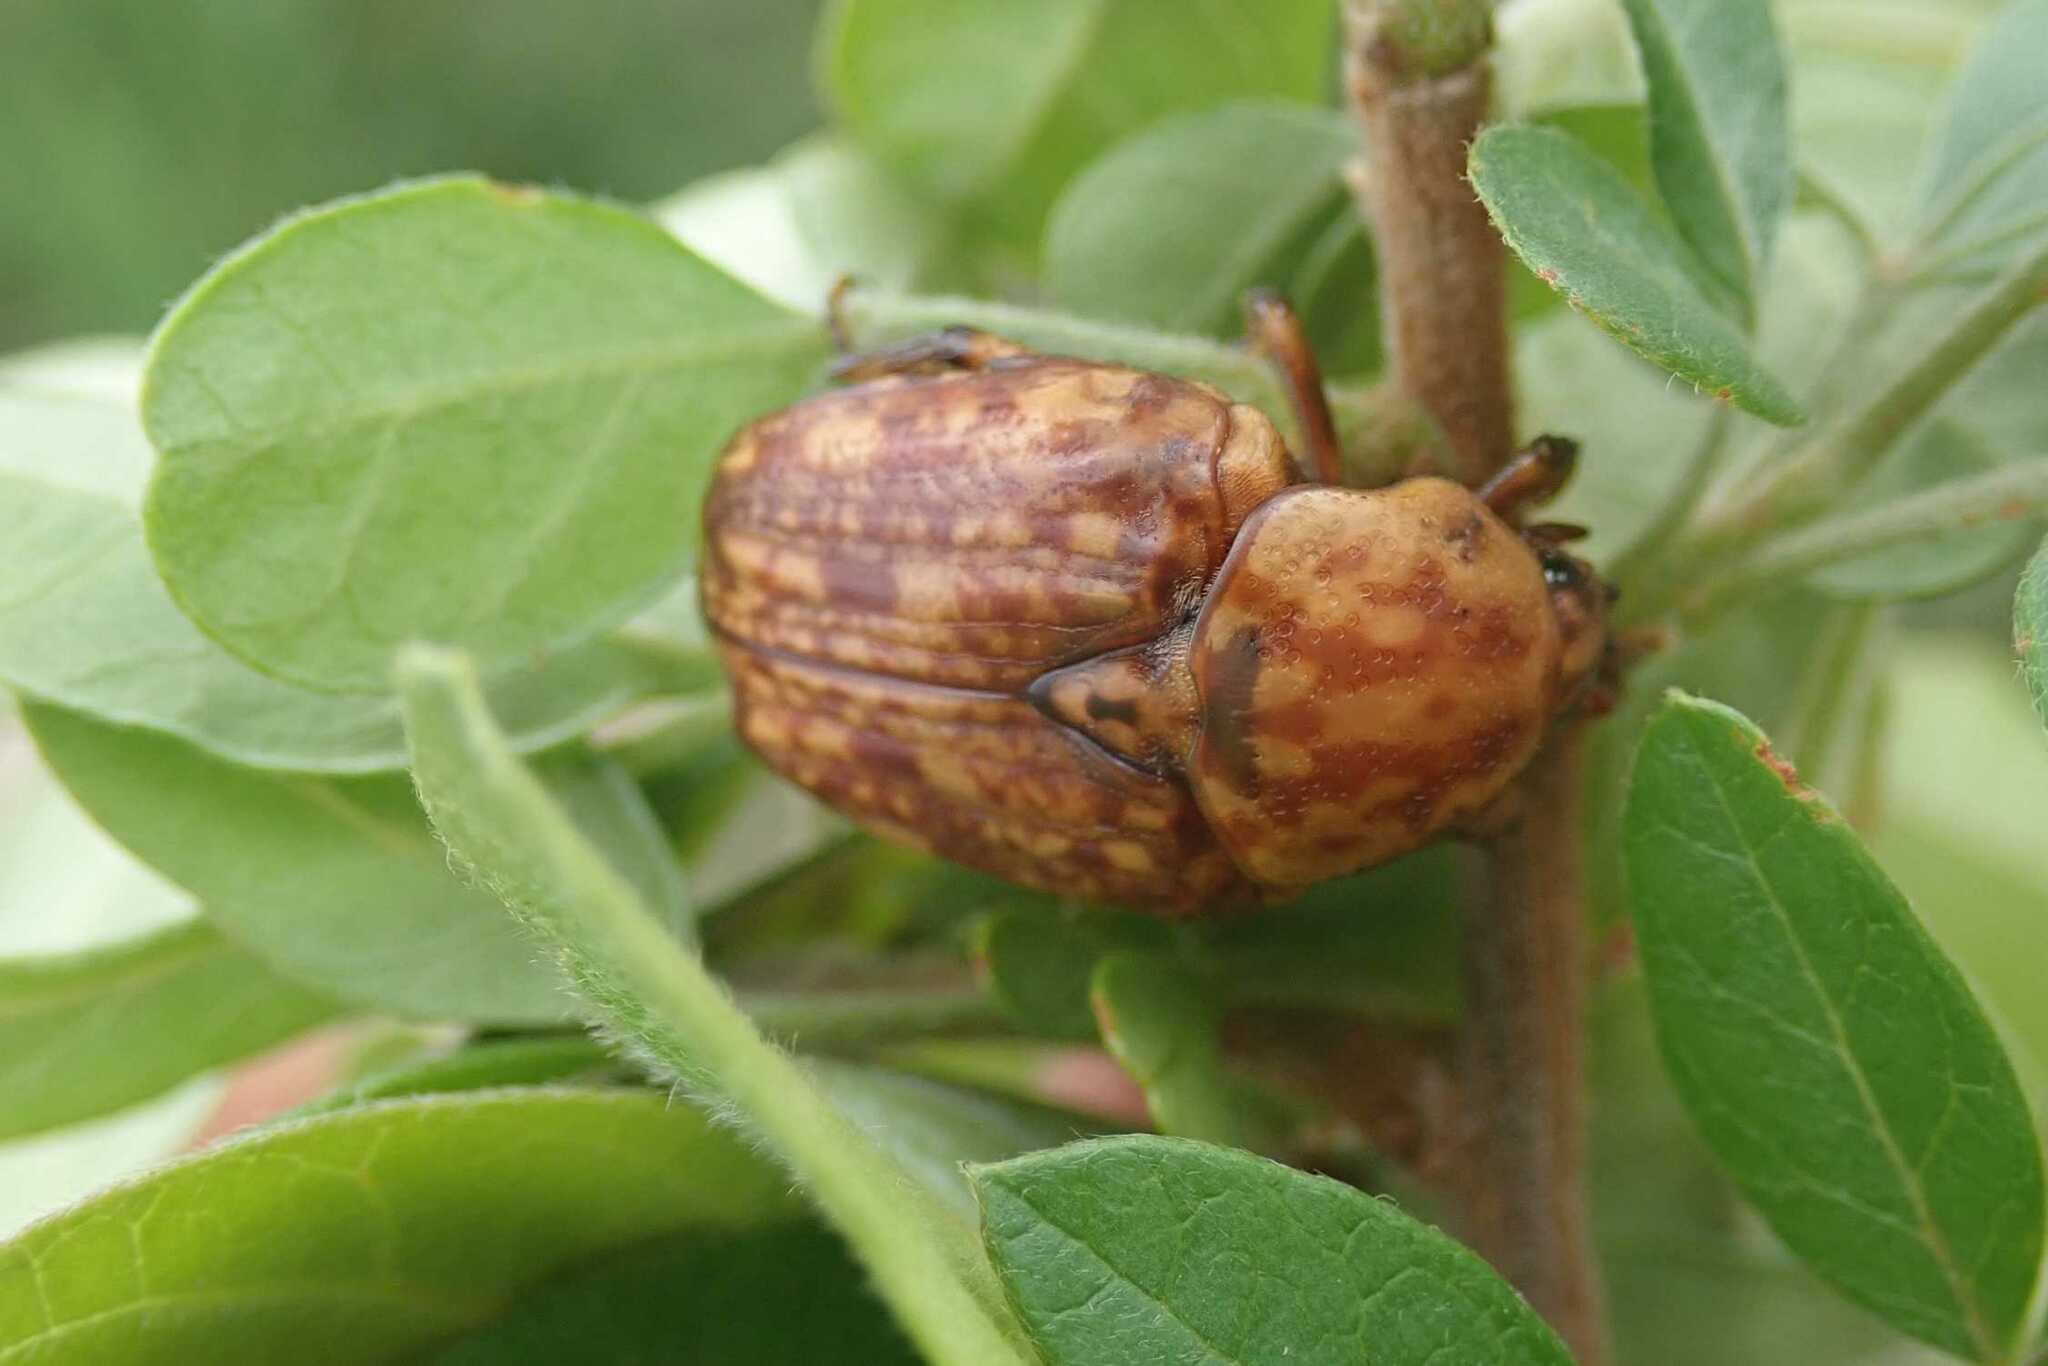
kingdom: Animalia
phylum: Arthropoda
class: Insecta
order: Coleoptera
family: Scarabaeidae
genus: Porphyronota
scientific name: Porphyronota hebraea
